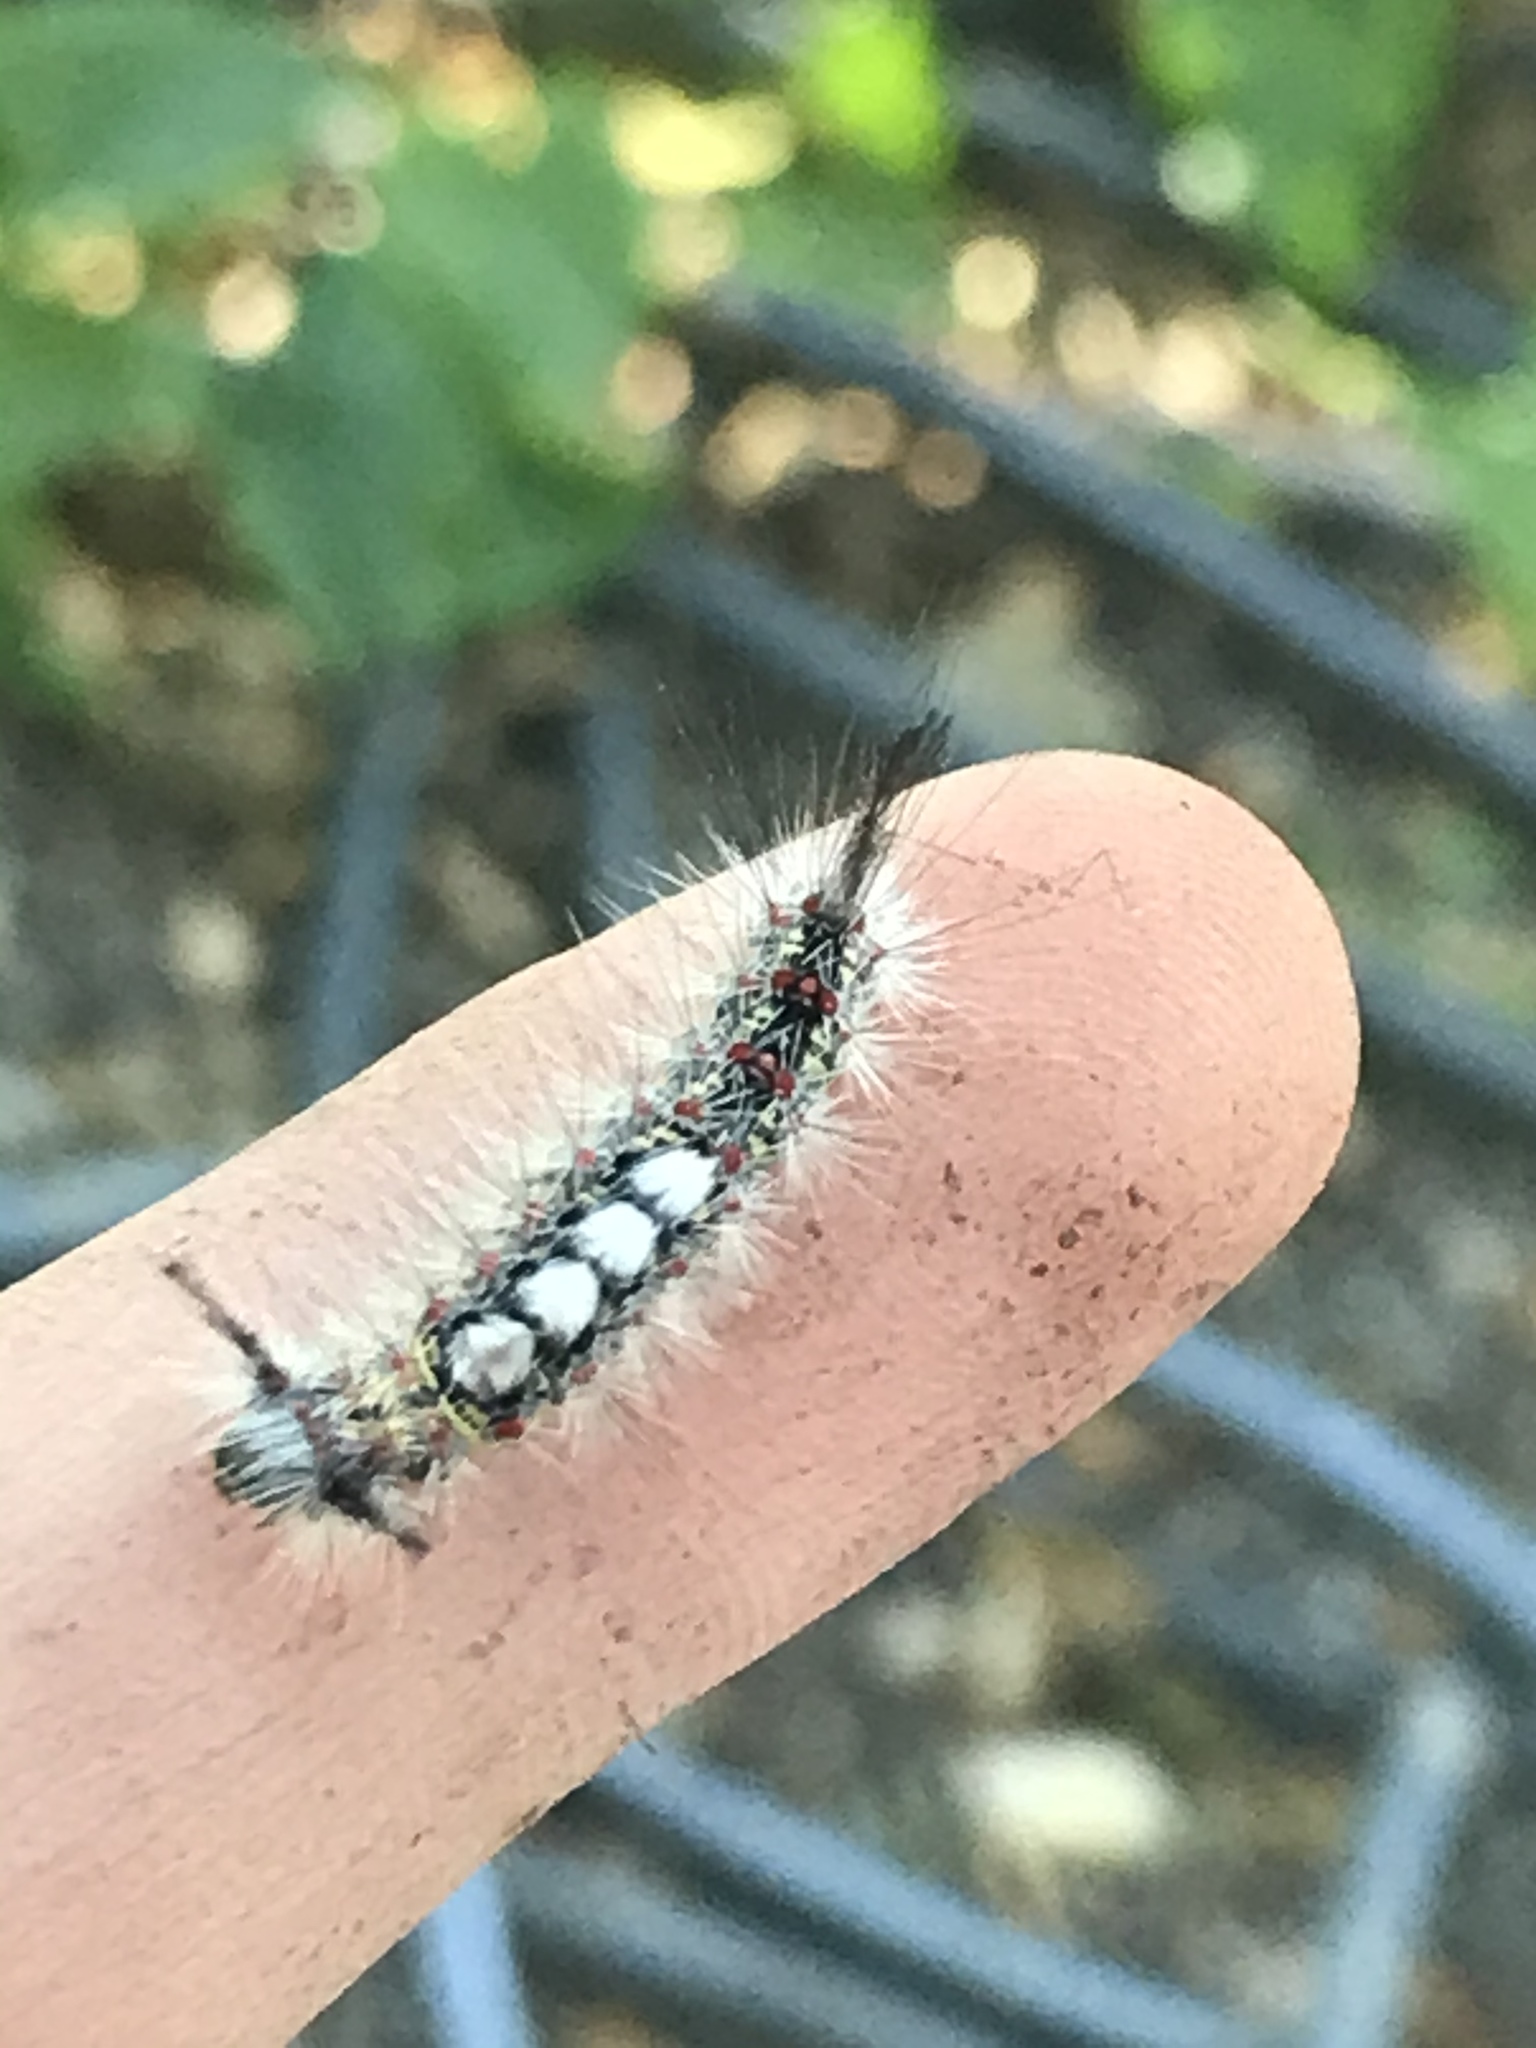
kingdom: Animalia
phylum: Arthropoda
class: Insecta
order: Lepidoptera
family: Erebidae
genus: Orgyia
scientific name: Orgyia
